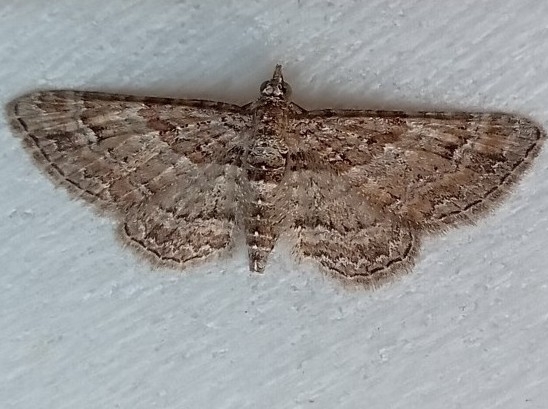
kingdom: Animalia
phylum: Arthropoda
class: Insecta
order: Lepidoptera
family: Geometridae
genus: Gymnoscelis
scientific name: Gymnoscelis rufifasciata
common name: Double-striped pug
